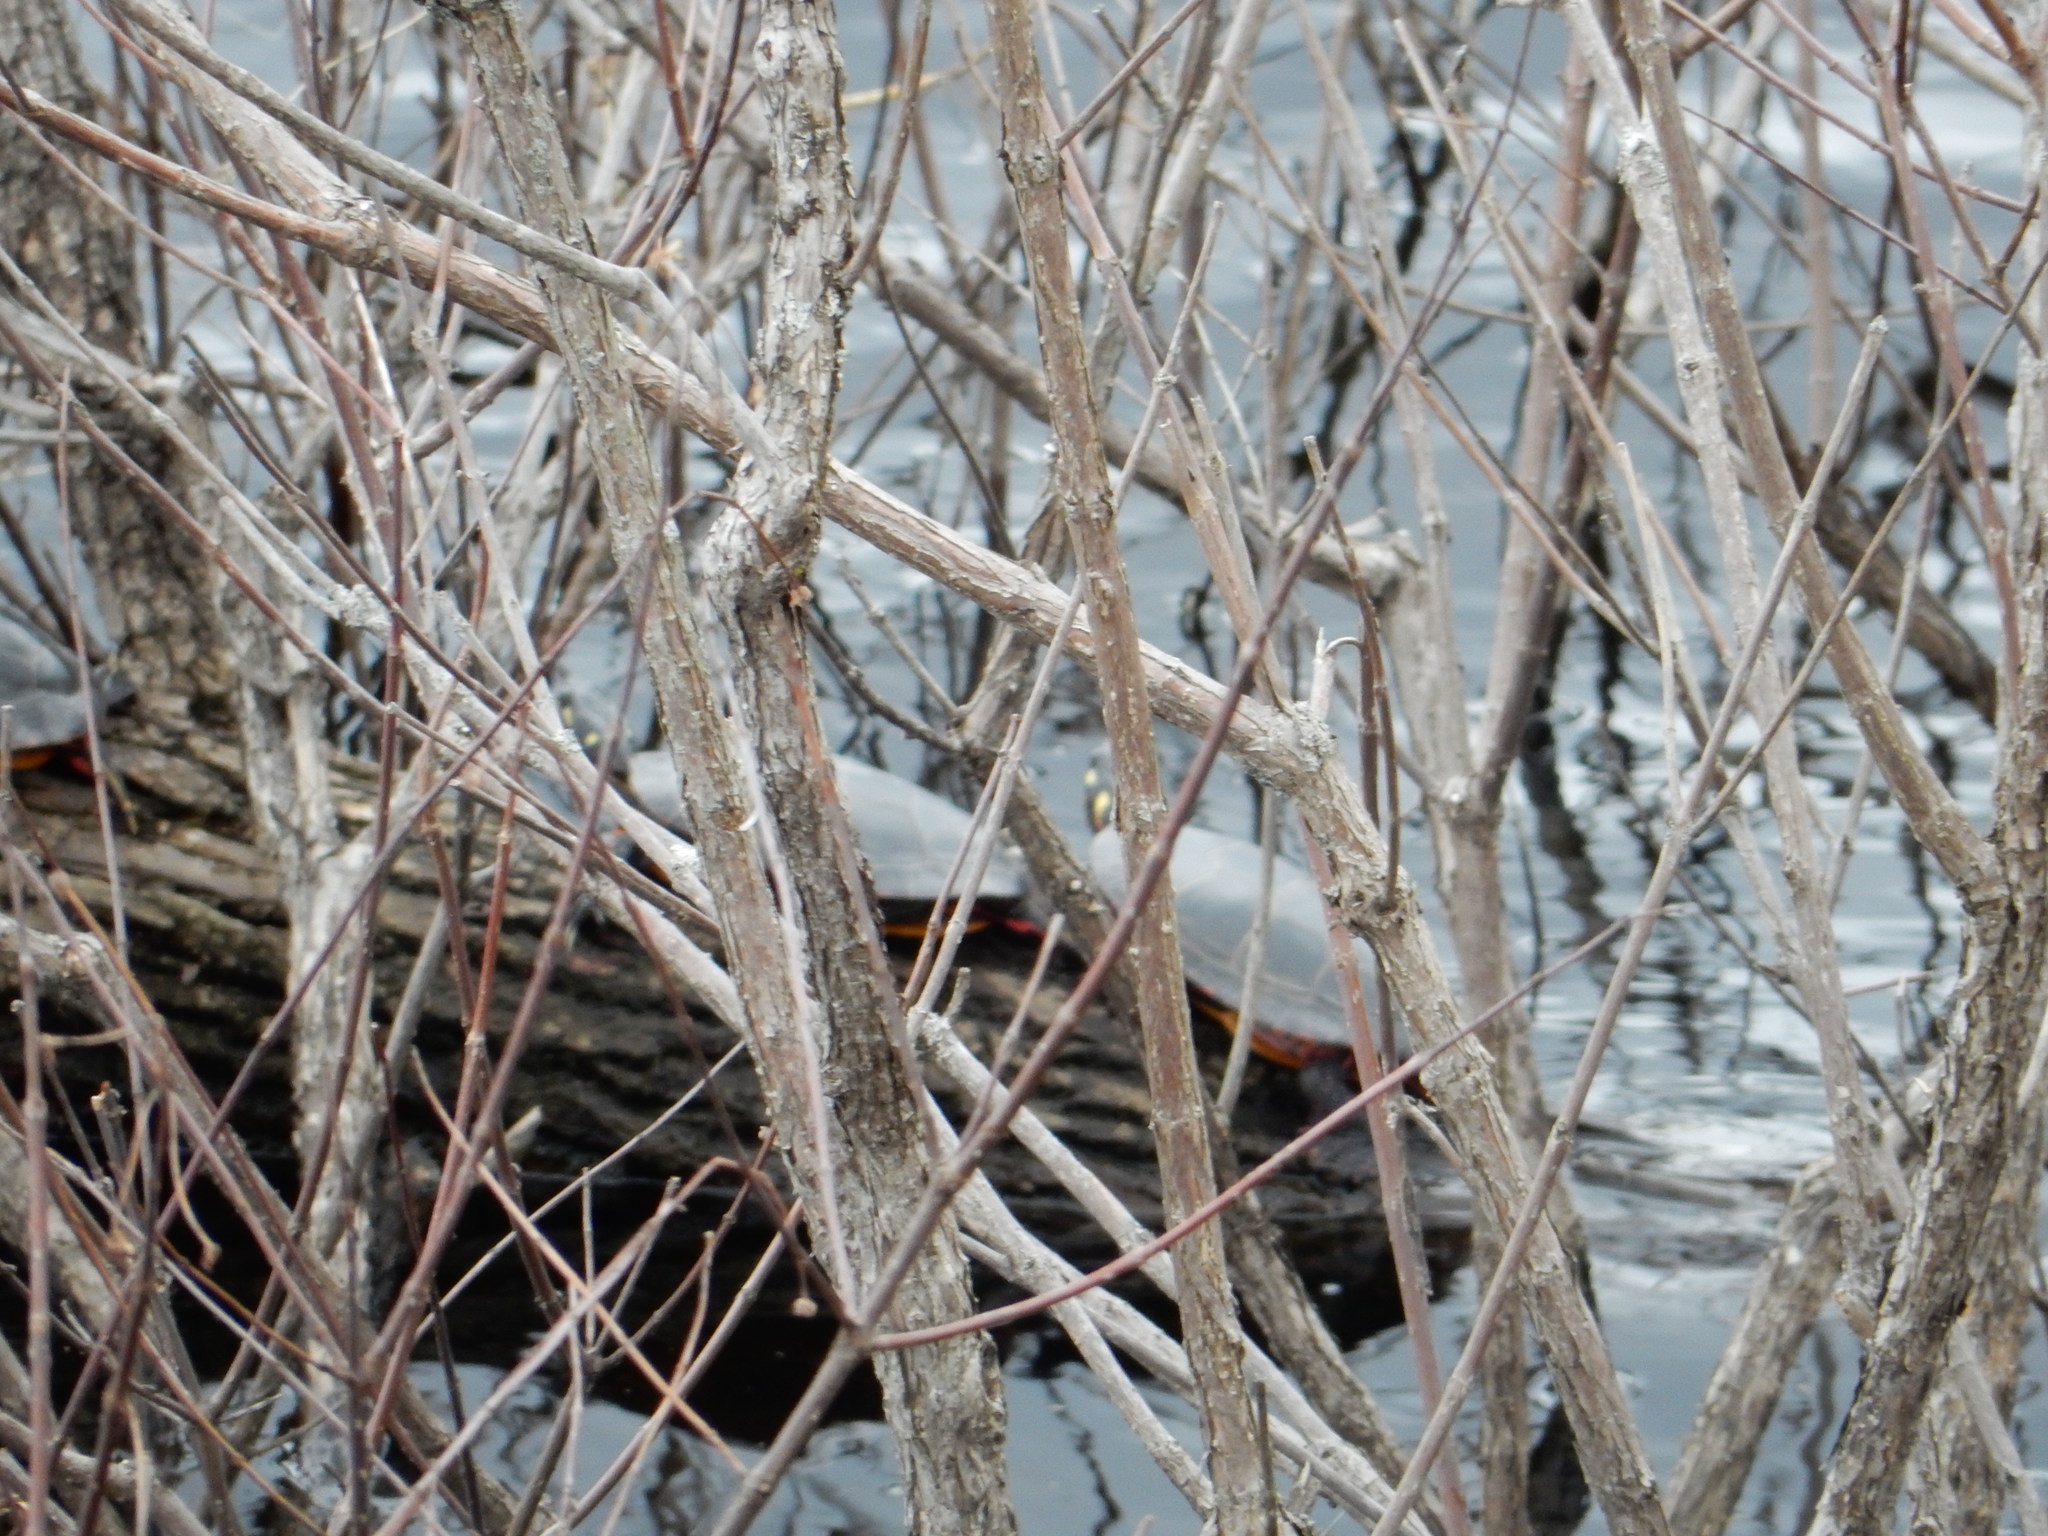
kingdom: Animalia
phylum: Chordata
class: Testudines
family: Emydidae
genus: Chrysemys
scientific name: Chrysemys picta
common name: Painted turtle
